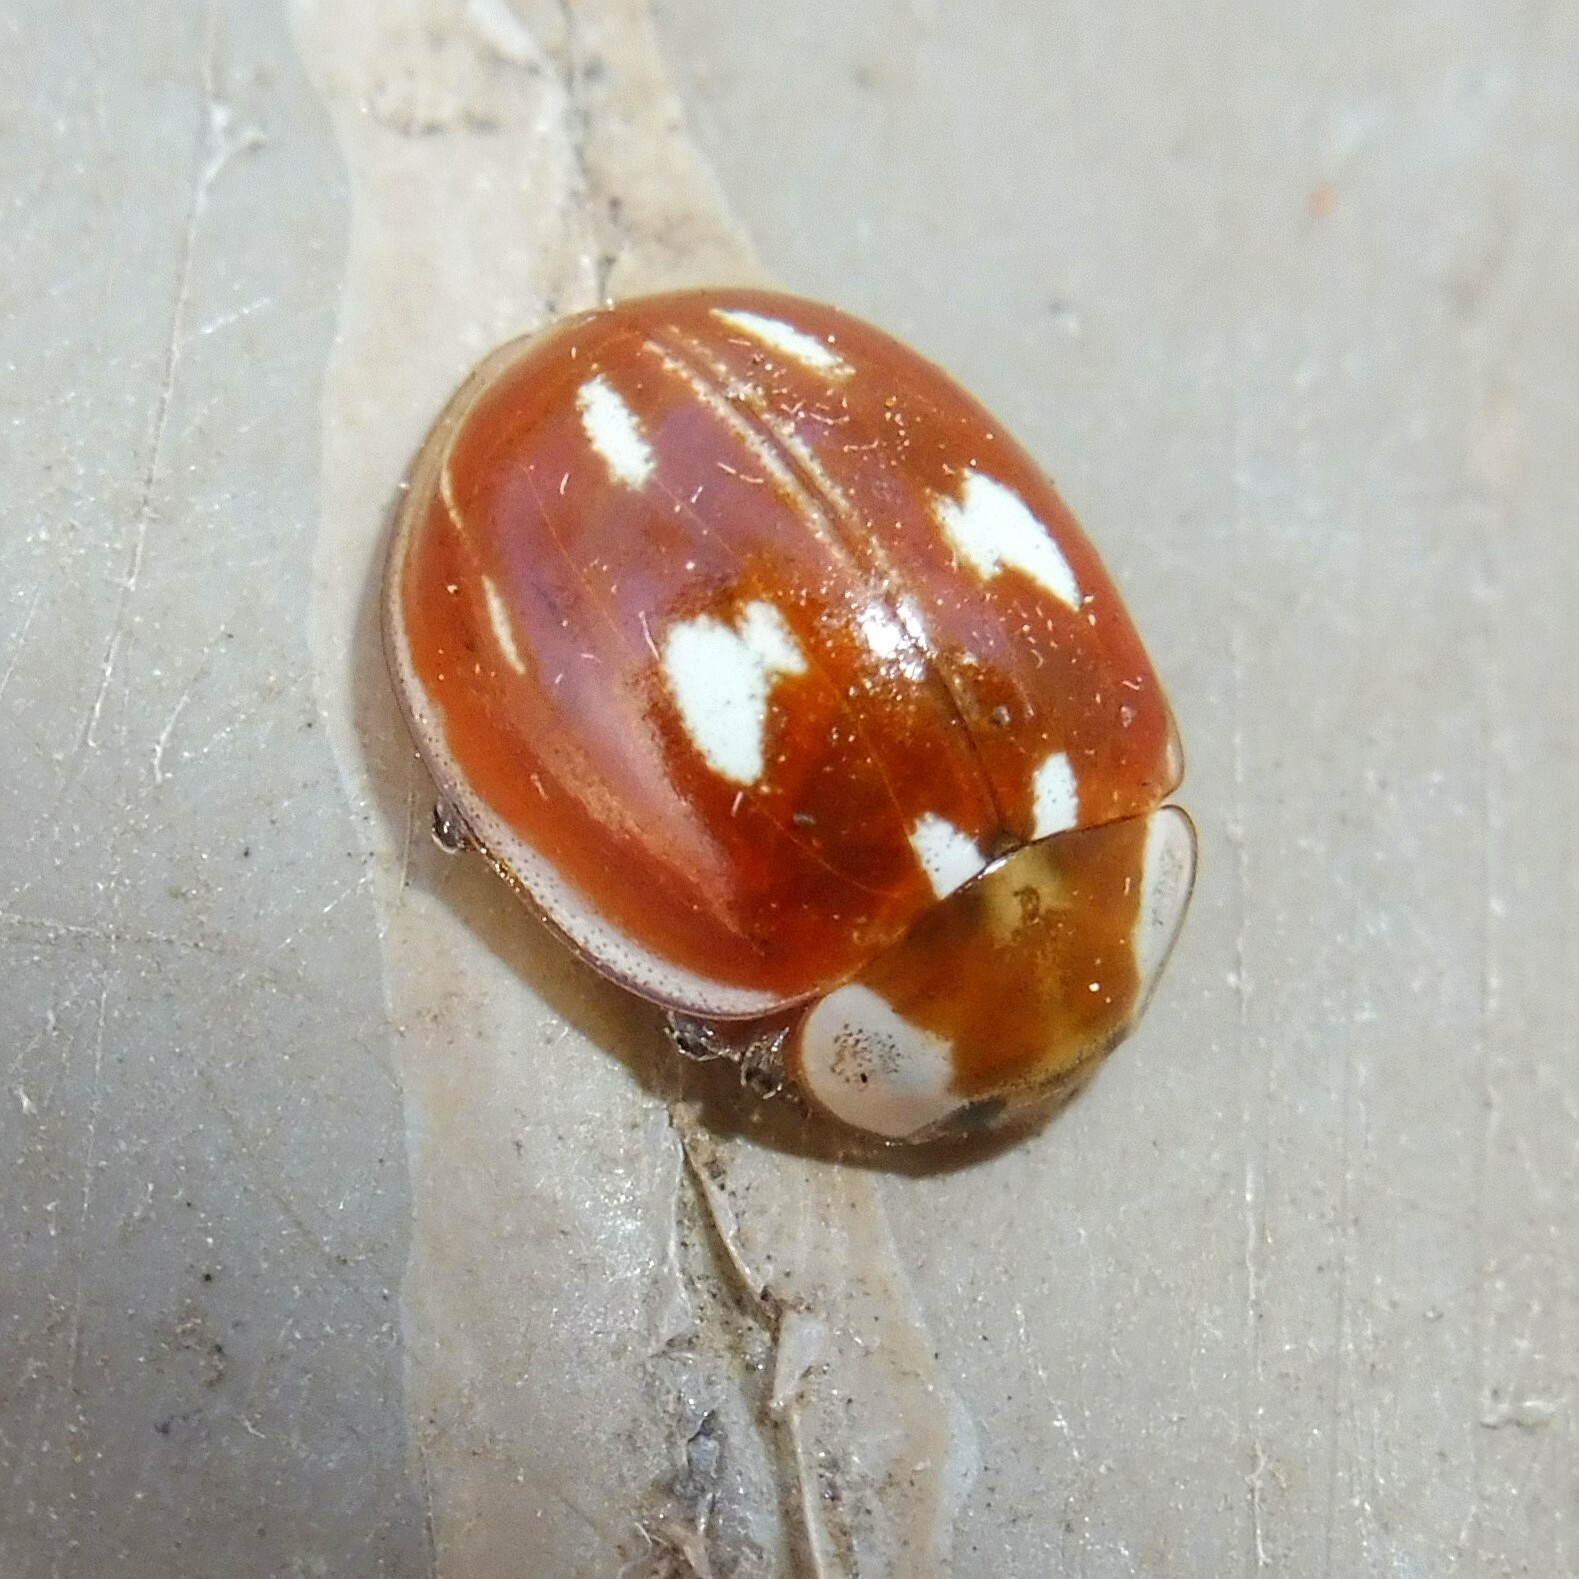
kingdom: Animalia
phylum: Arthropoda
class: Insecta
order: Coleoptera
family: Coccinellidae
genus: Myzia
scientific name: Myzia oblongoguttata
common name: Striped ladybird
